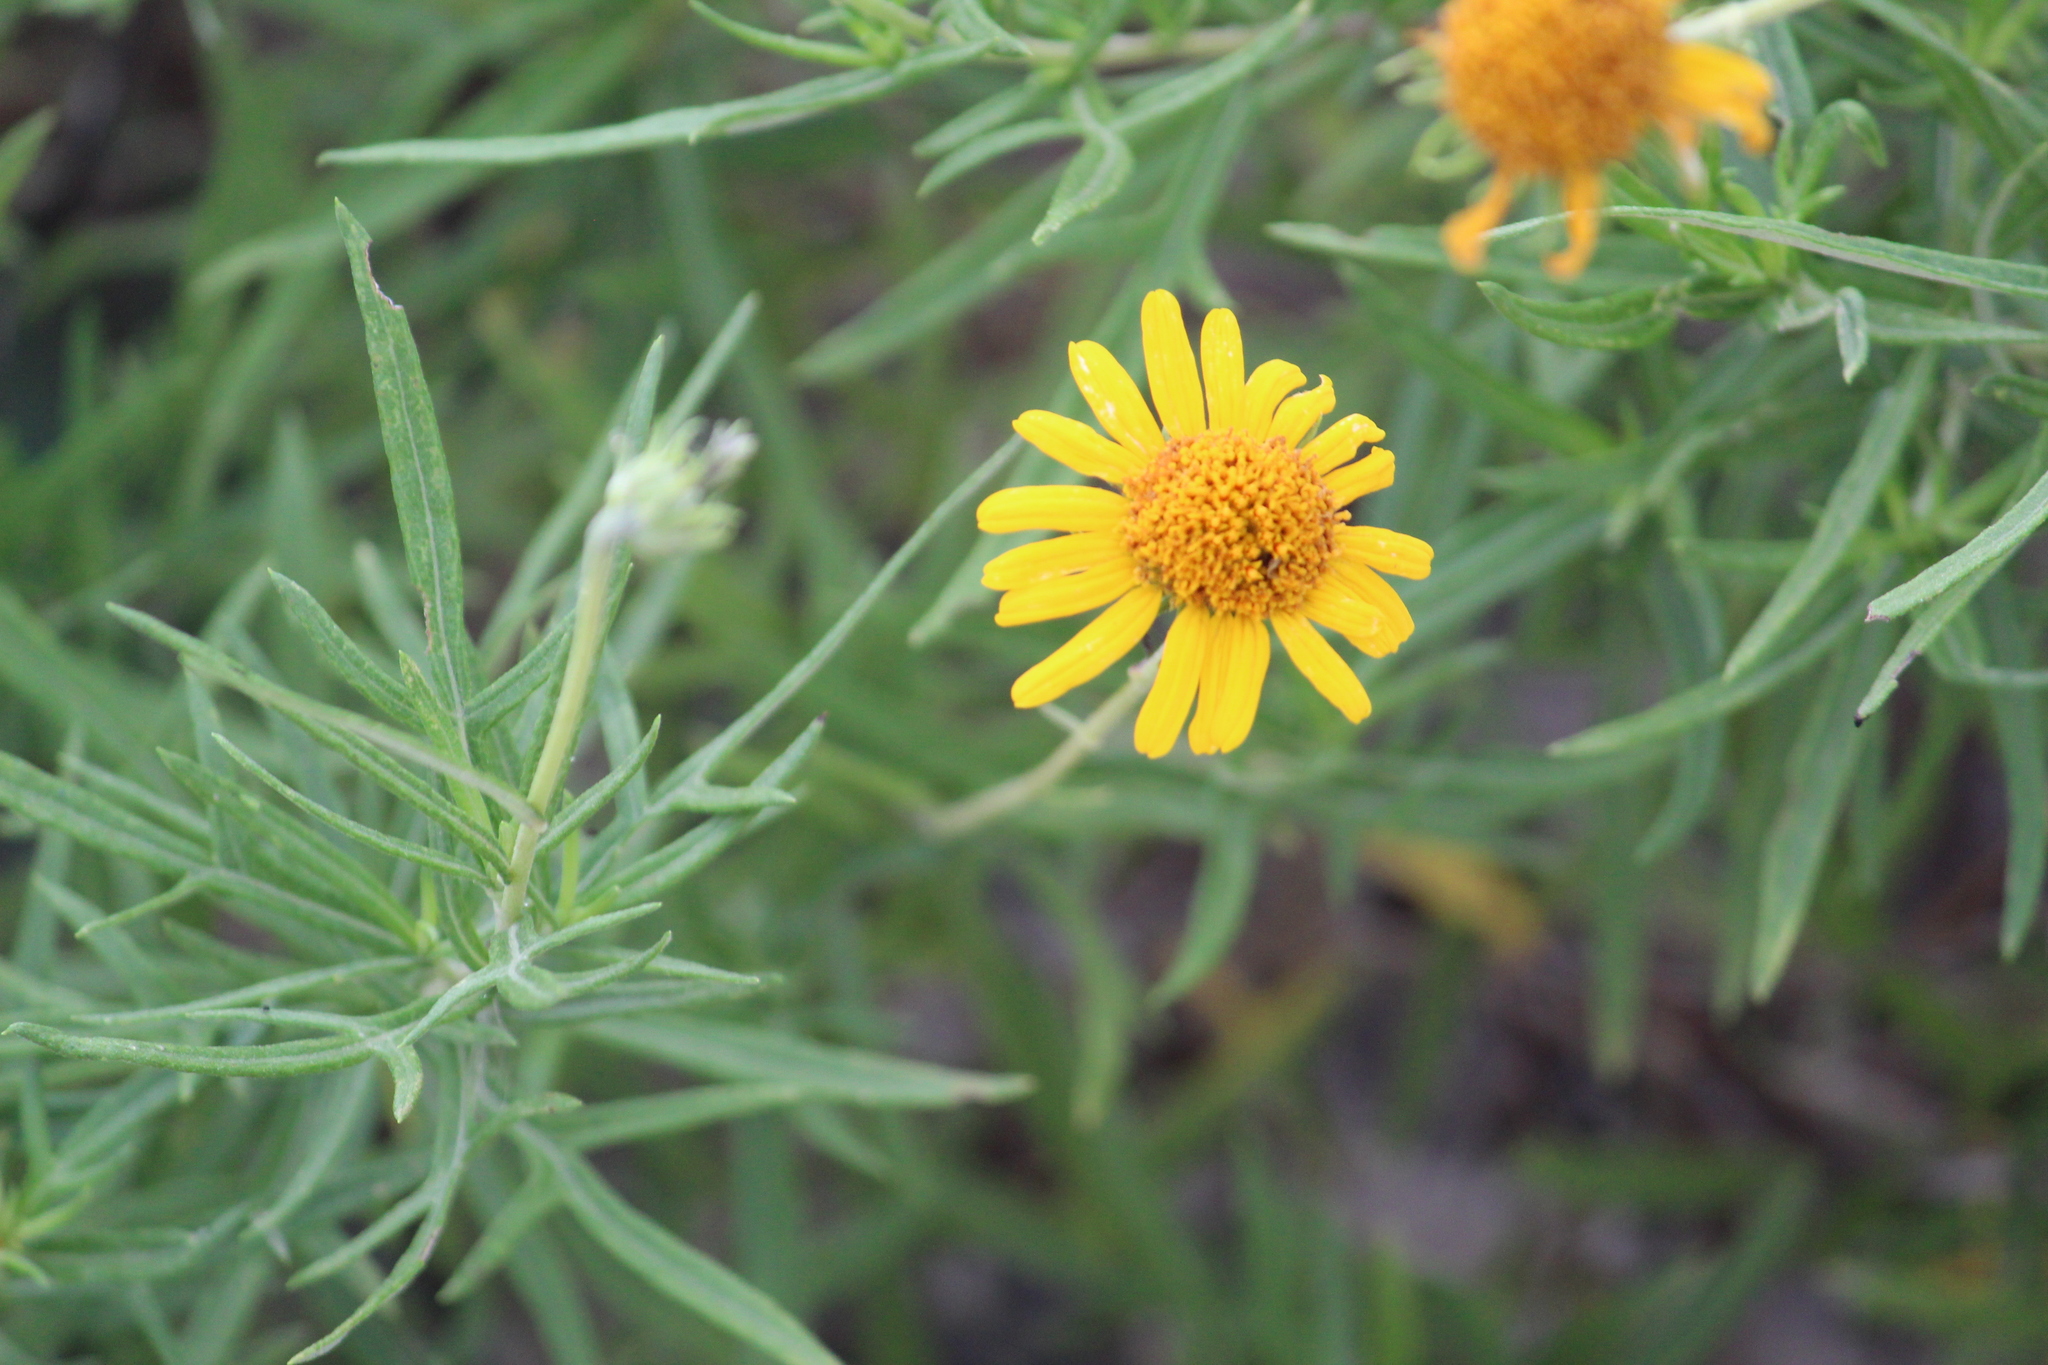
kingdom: Plantae
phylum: Tracheophyta
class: Magnoliopsida
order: Asterales
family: Asteraceae
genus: Sidneya
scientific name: Sidneya tenuifolia
